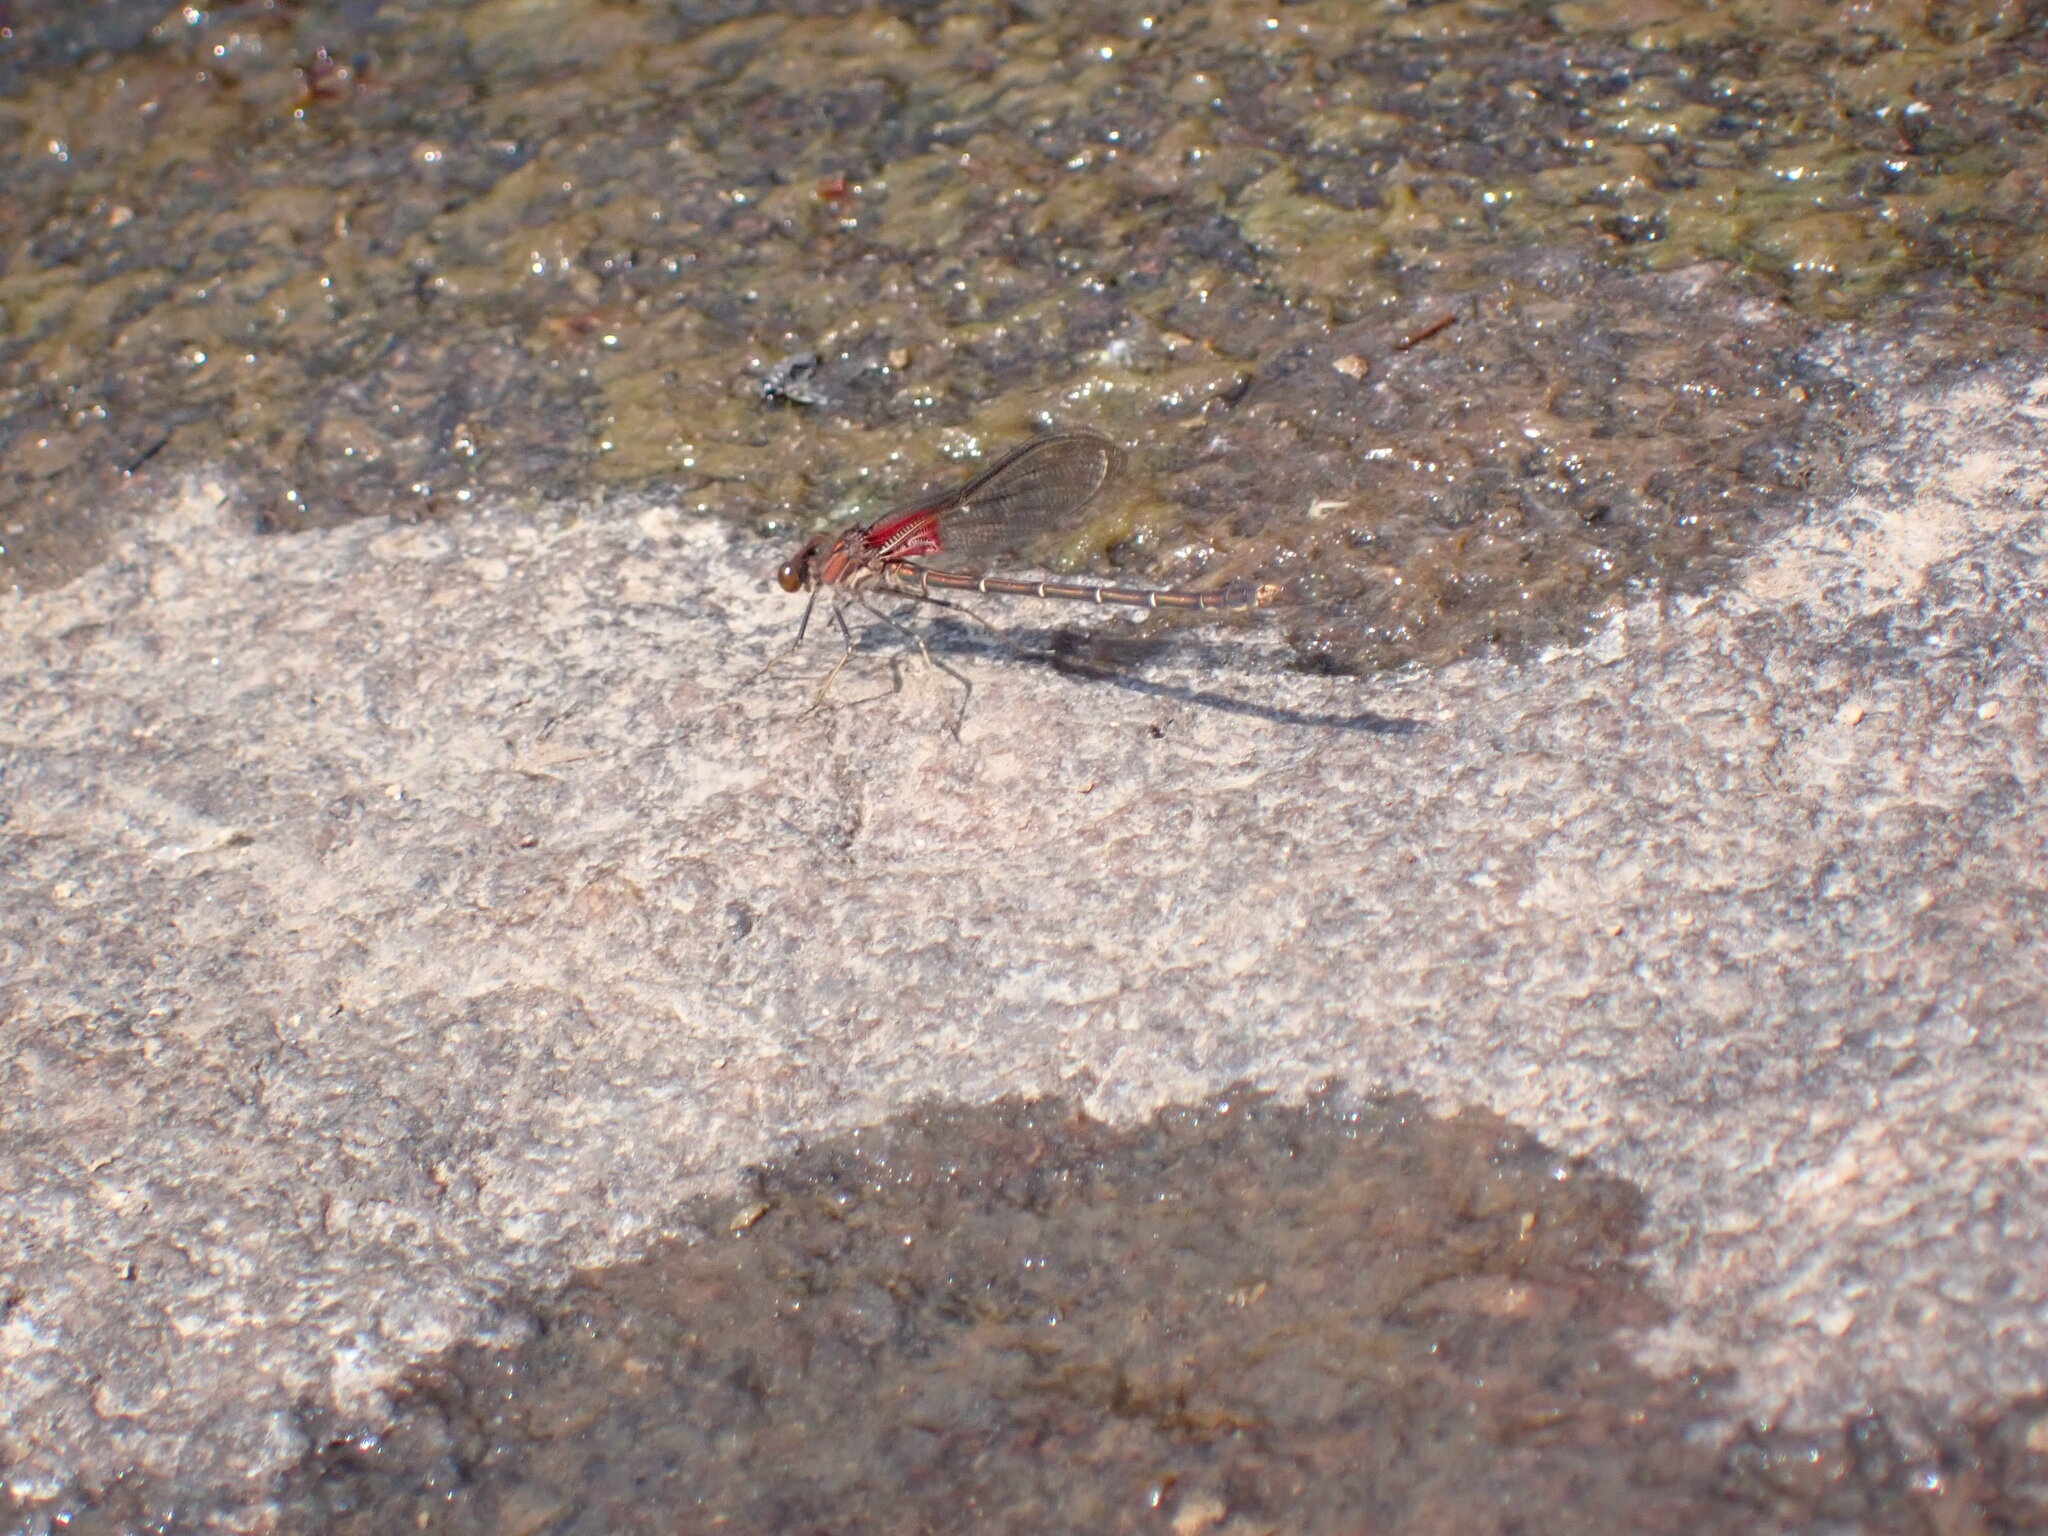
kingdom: Animalia
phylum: Arthropoda
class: Insecta
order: Odonata
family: Calopterygidae
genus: Hetaerina
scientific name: Hetaerina americana
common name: American rubyspot
